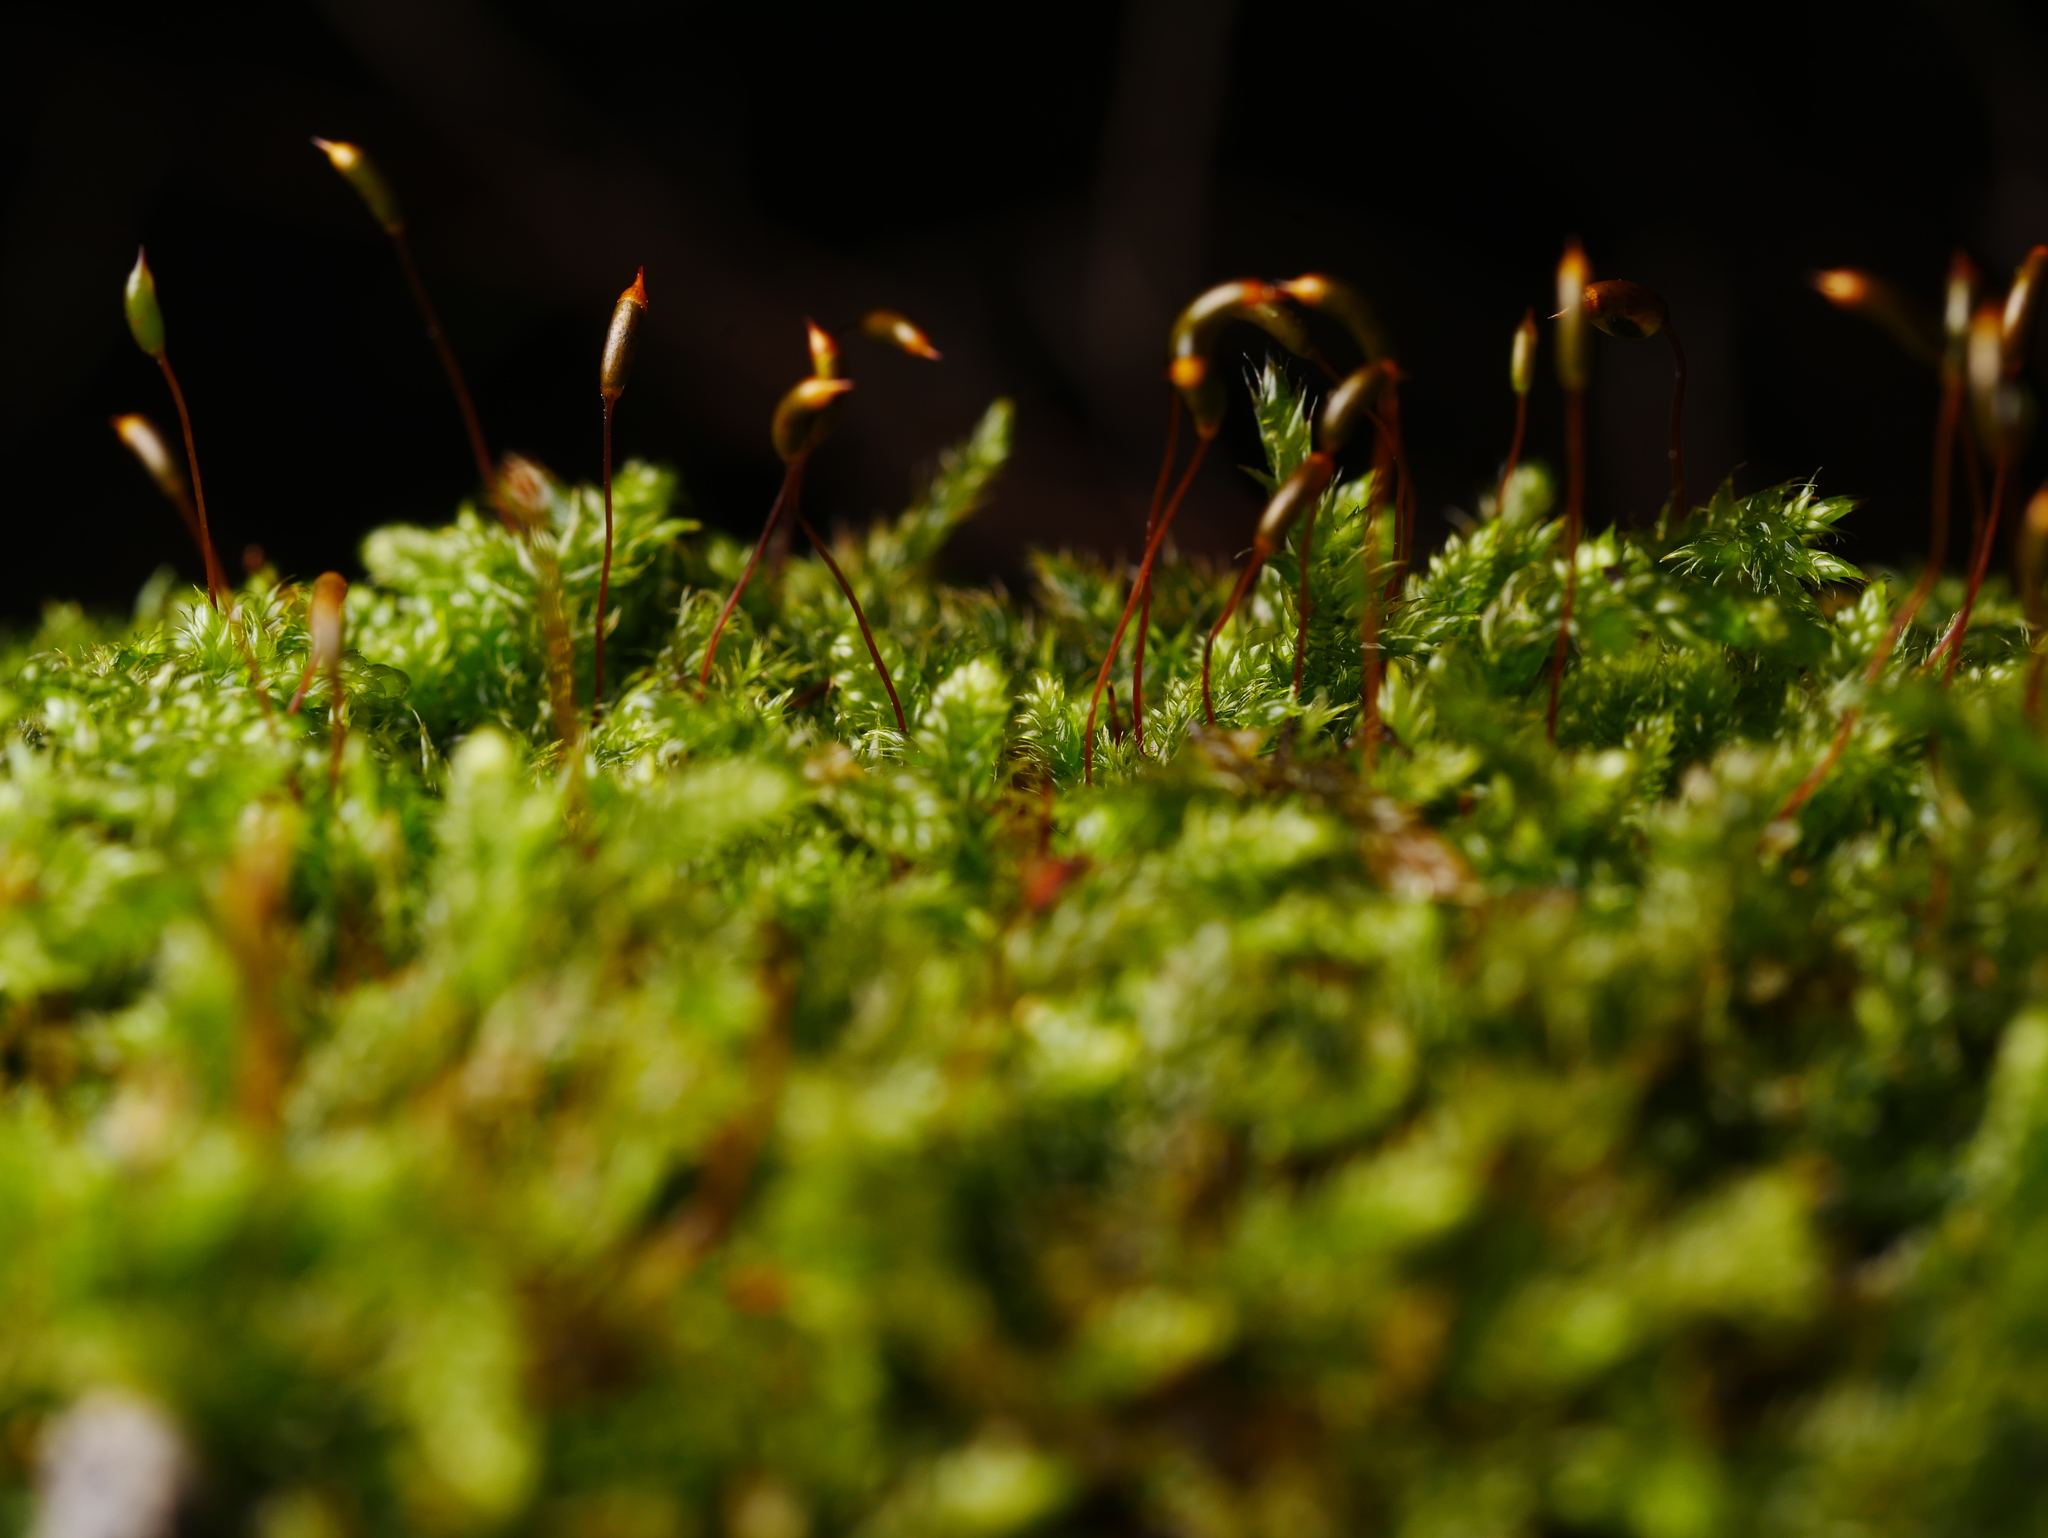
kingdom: Plantae
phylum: Bryophyta
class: Bryopsida
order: Hypnales
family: Hypnaceae
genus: Hypnum
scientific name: Hypnum cupressiforme
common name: Cypress-leaved plait-moss
